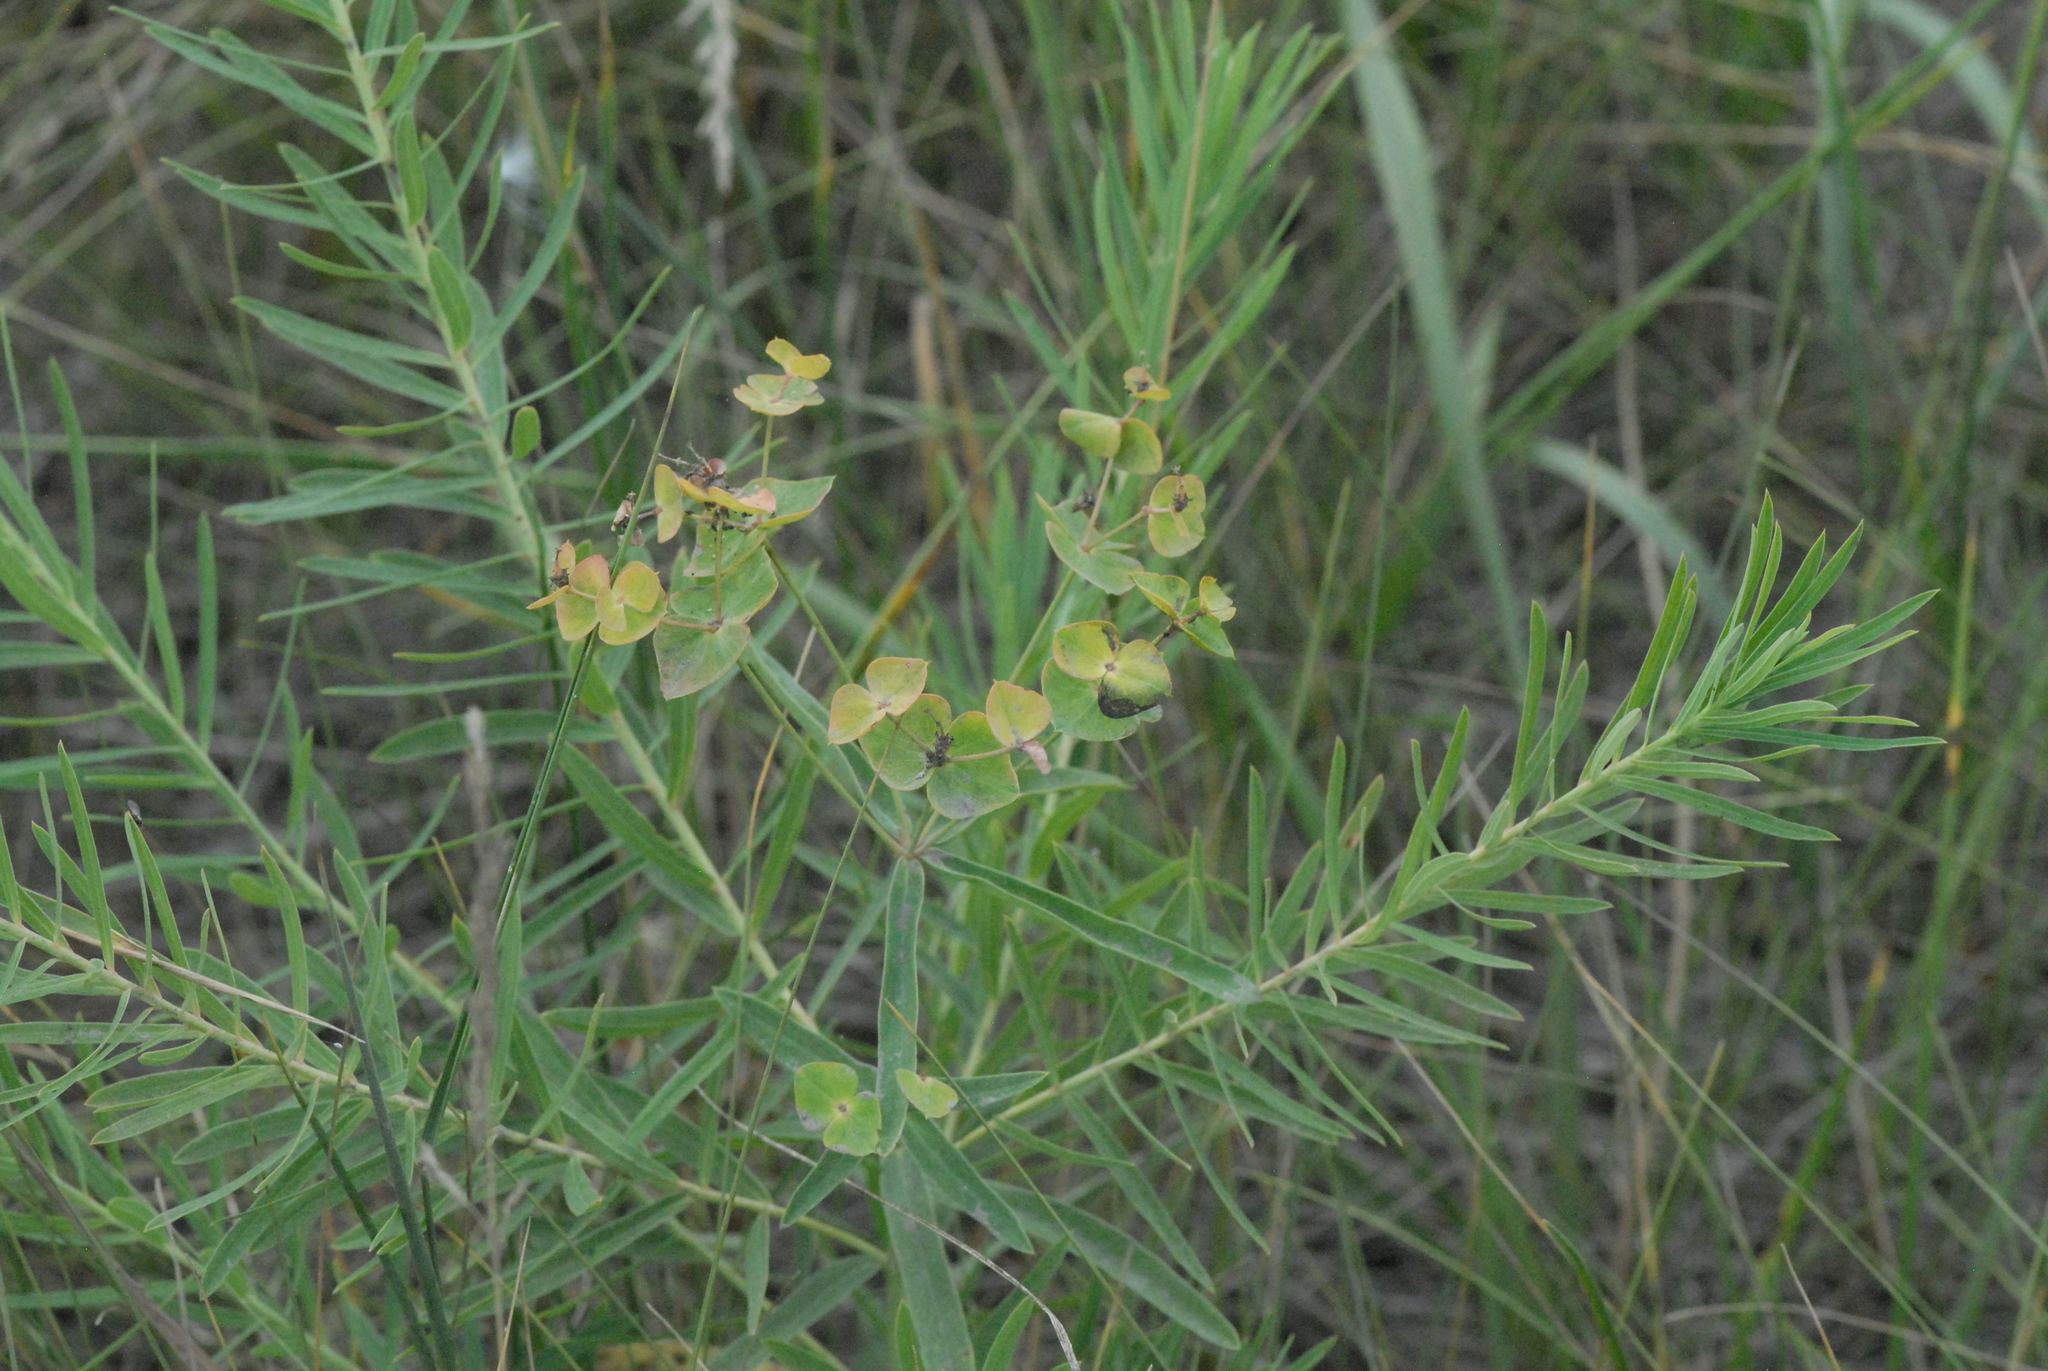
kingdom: Plantae
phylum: Tracheophyta
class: Magnoliopsida
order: Malpighiales
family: Euphorbiaceae
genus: Euphorbia
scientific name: Euphorbia virgata
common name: Leafy spurge
